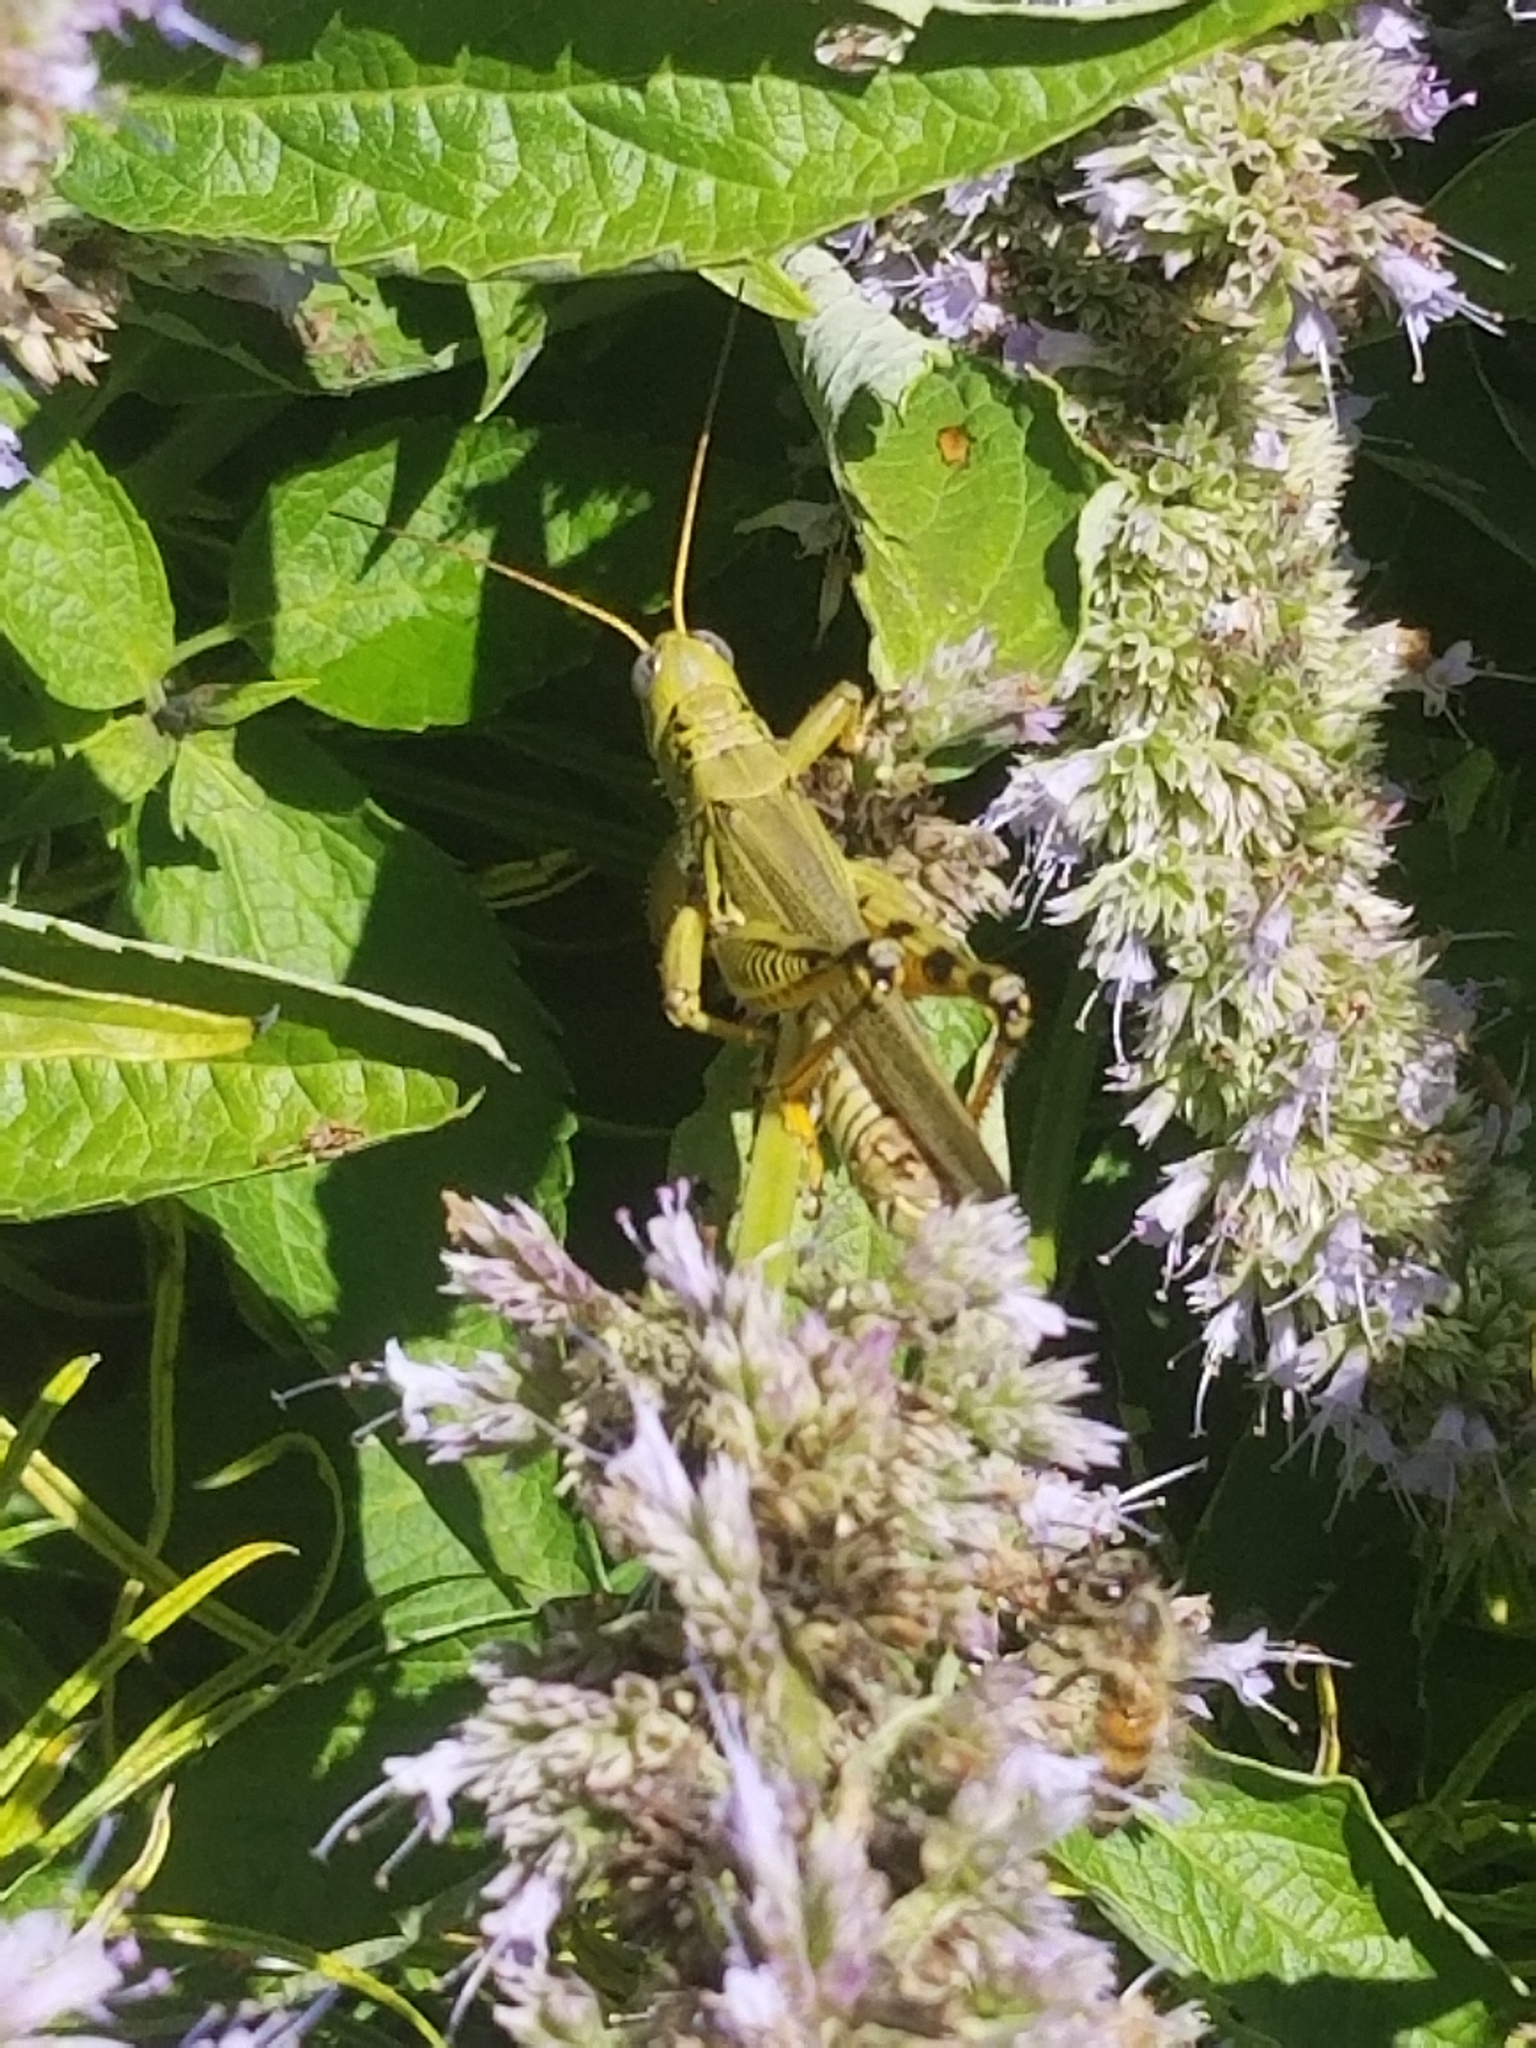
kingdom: Animalia
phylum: Arthropoda
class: Insecta
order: Orthoptera
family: Acrididae
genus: Melanoplus
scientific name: Melanoplus differentialis
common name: Differential grasshopper
